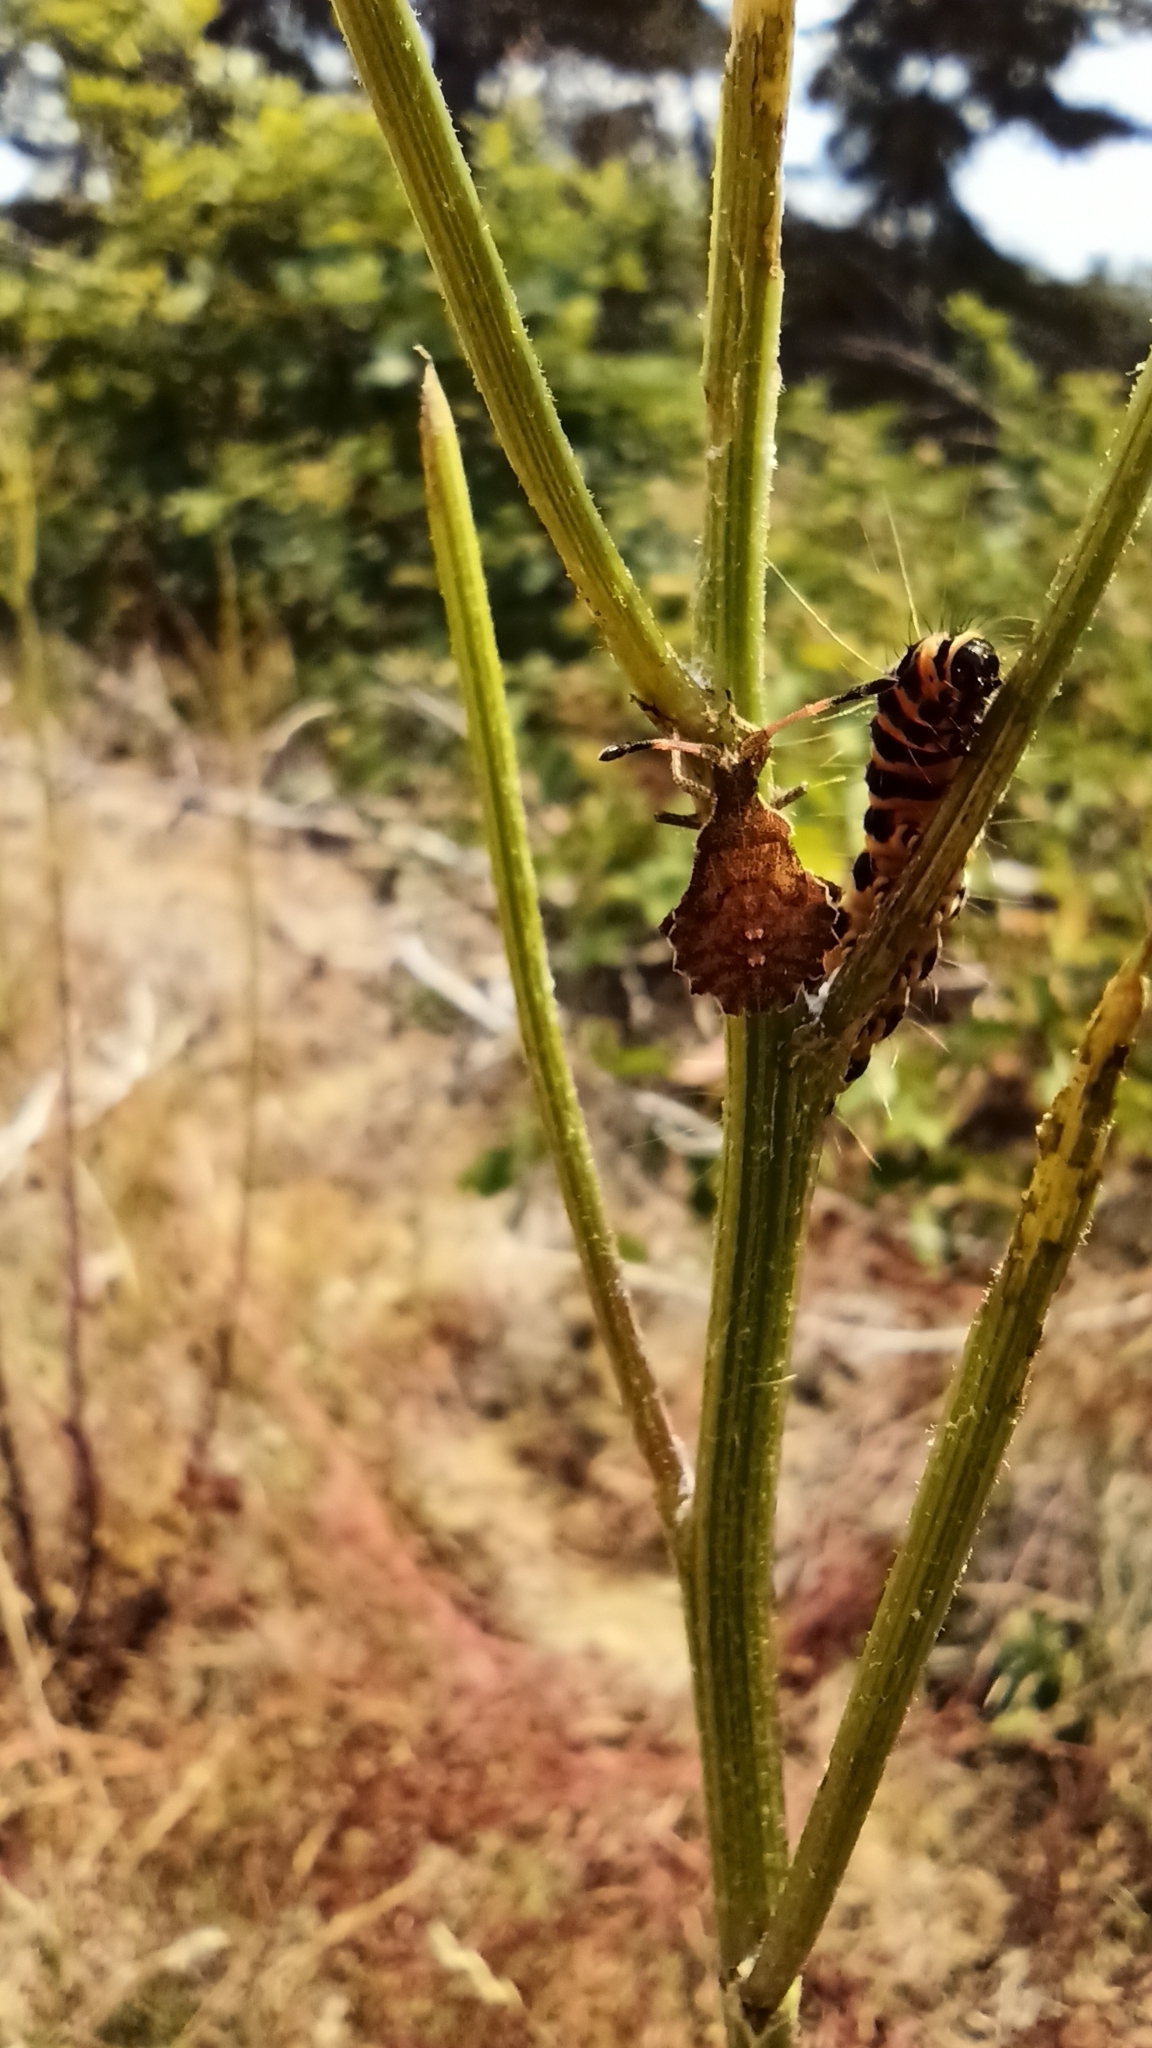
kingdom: Animalia
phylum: Arthropoda
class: Insecta
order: Hemiptera
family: Coreidae
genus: Enoplops
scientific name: Enoplops scapha
